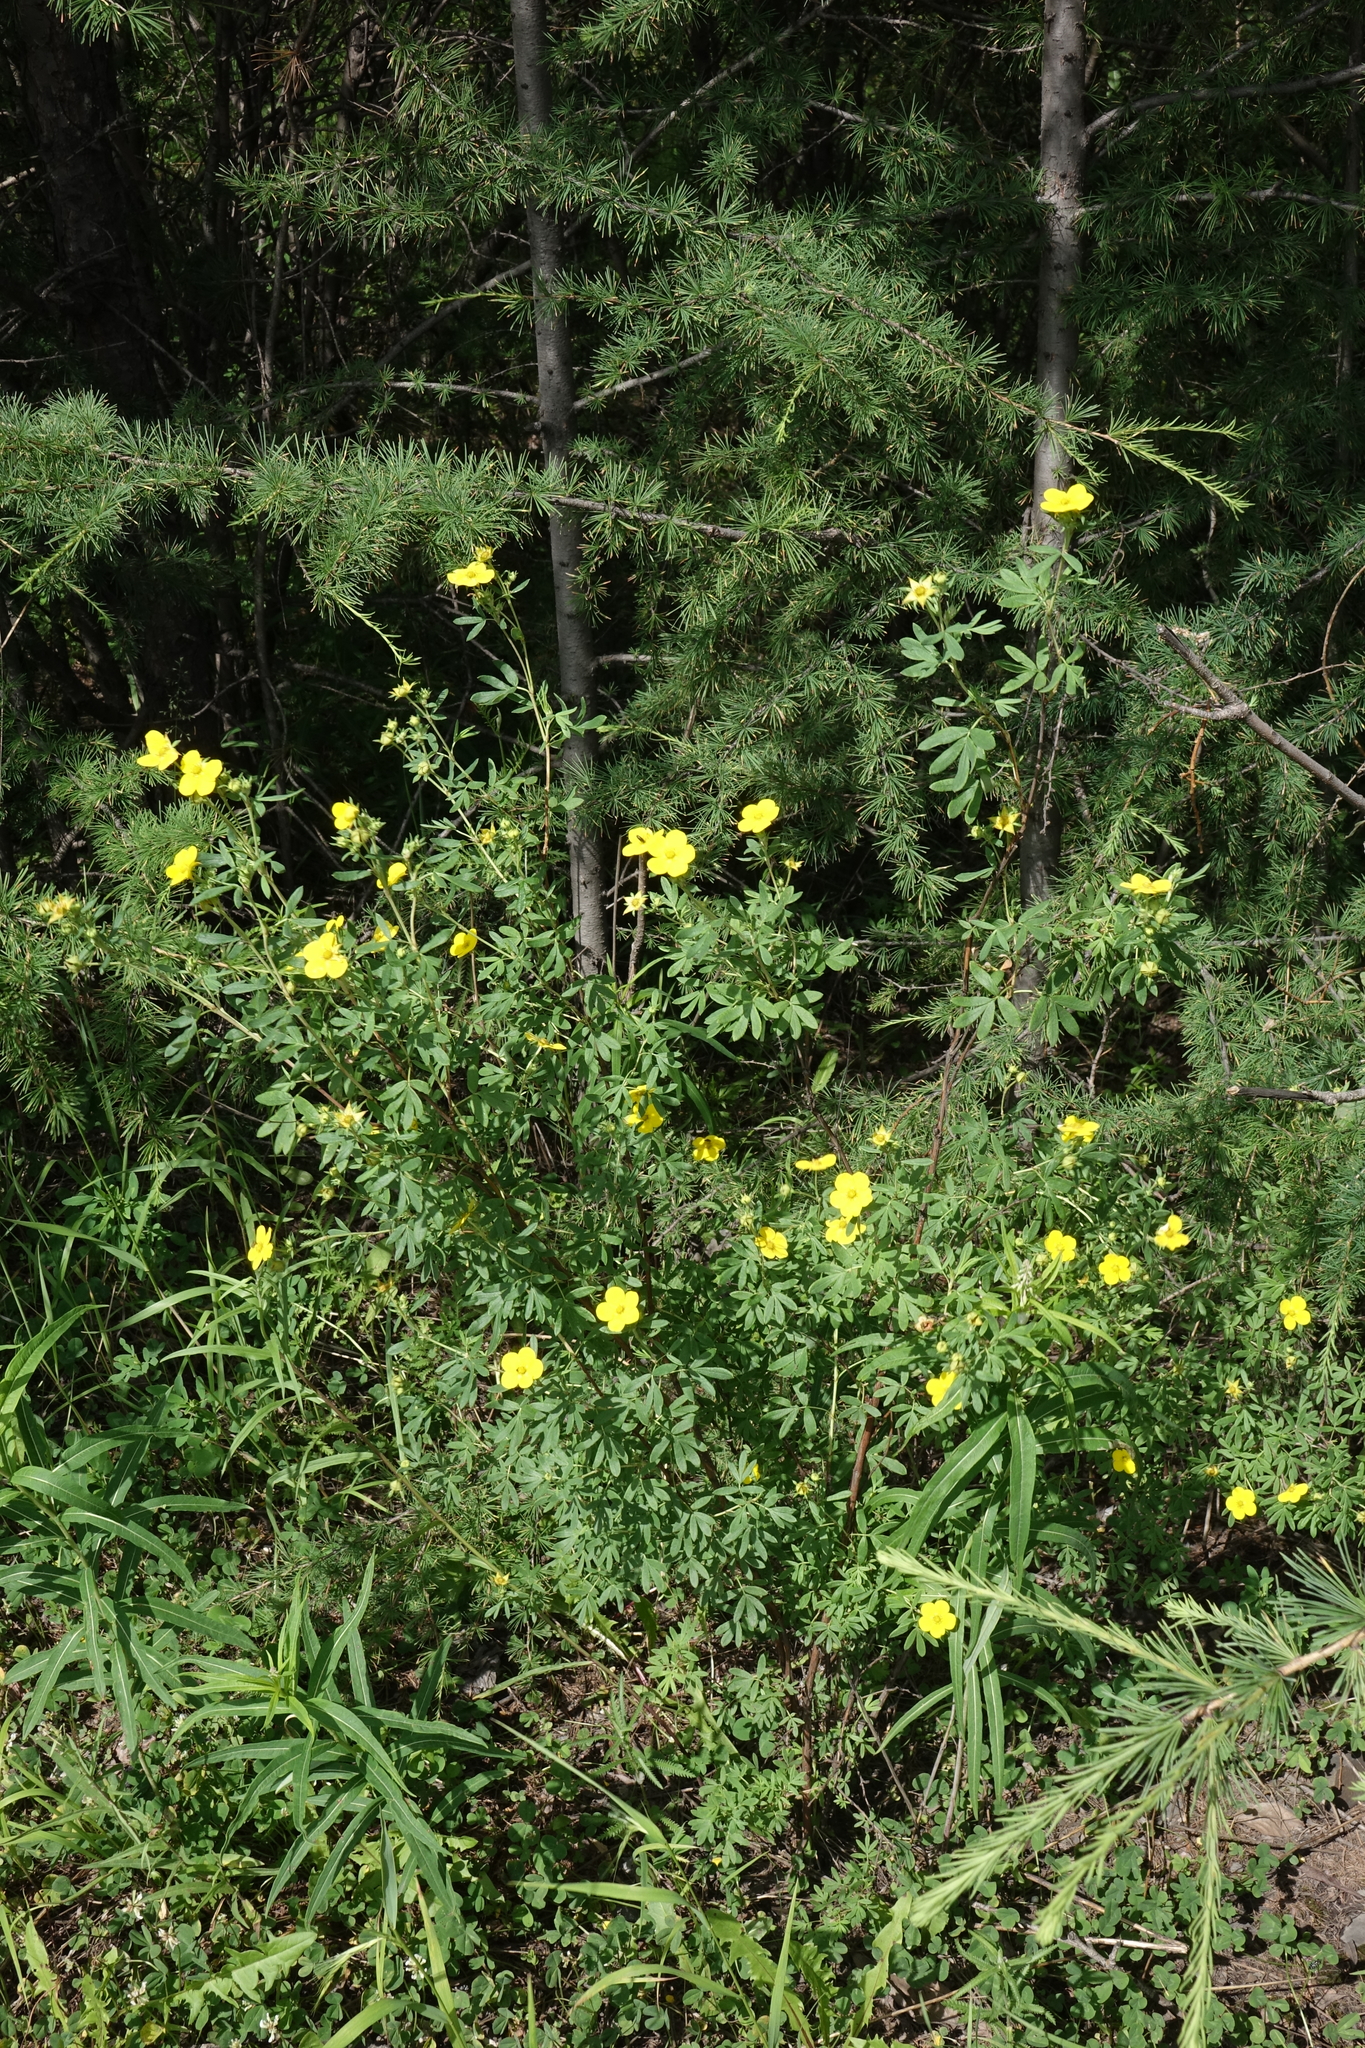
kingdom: Plantae
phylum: Tracheophyta
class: Magnoliopsida
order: Rosales
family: Rosaceae
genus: Dasiphora
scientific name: Dasiphora fruticosa
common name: Shrubby cinquefoil
